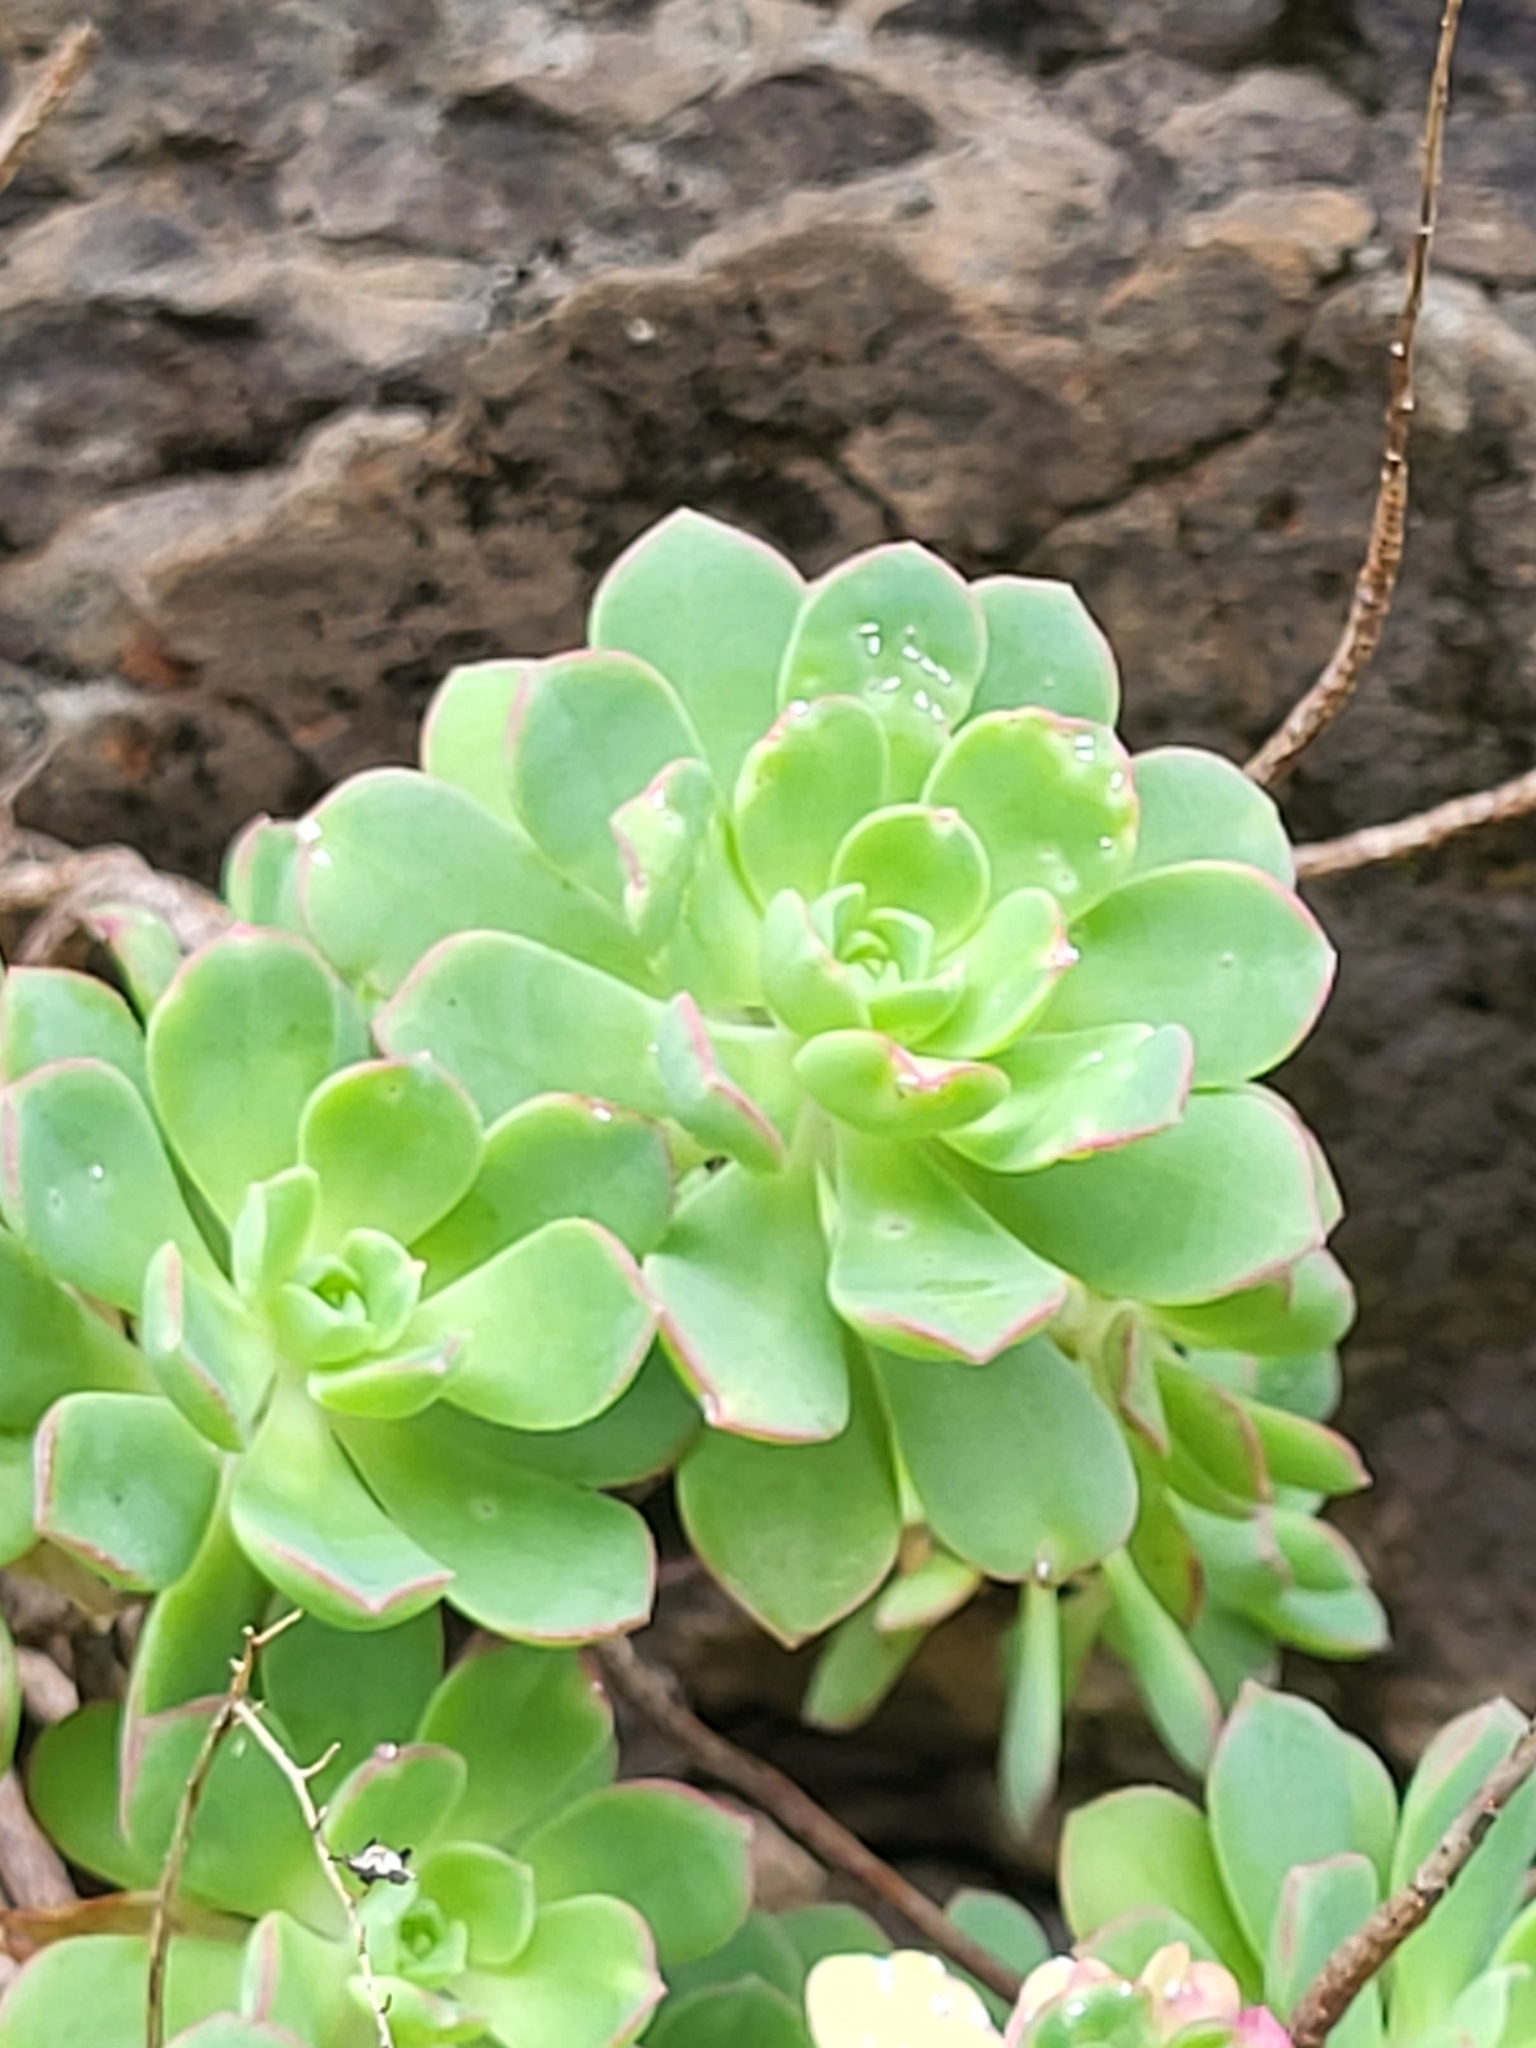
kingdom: Plantae
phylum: Tracheophyta
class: Magnoliopsida
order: Saxifragales
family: Crassulaceae
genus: Aeonium
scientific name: Aeonium castello-paivae
